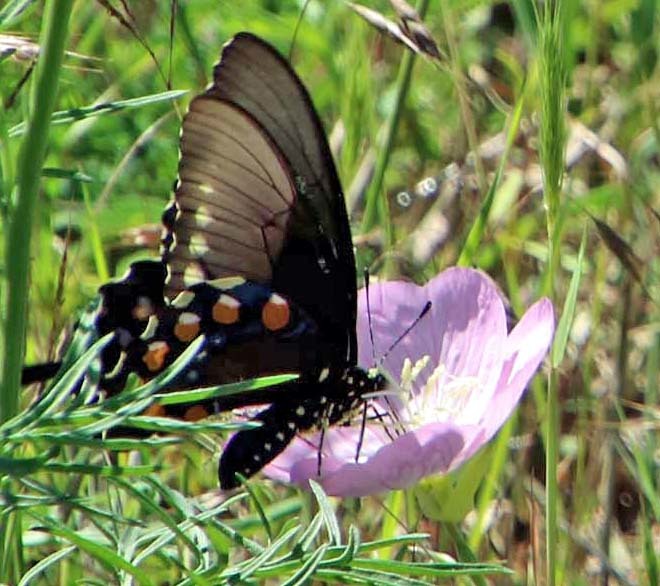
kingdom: Animalia
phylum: Arthropoda
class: Insecta
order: Lepidoptera
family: Papilionidae
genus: Battus
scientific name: Battus philenor
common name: Pipevine swallowtail
